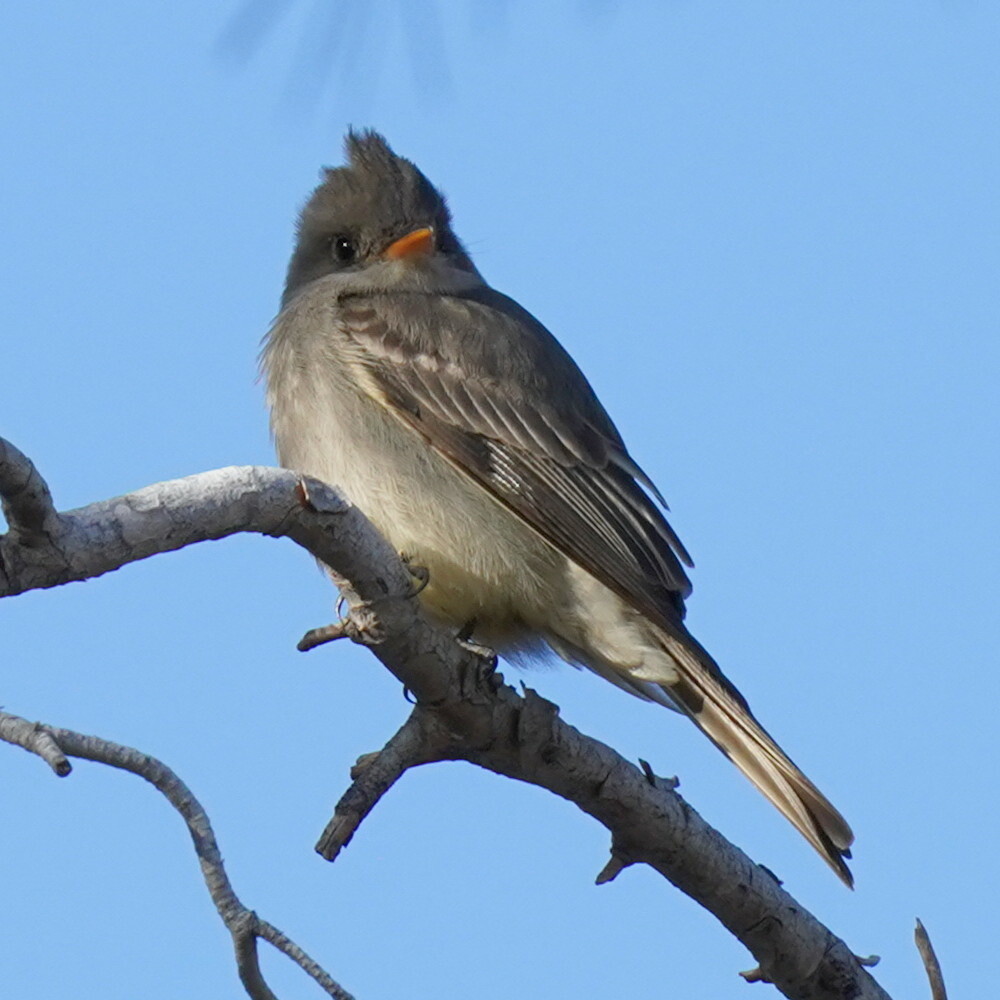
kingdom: Animalia
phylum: Chordata
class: Aves
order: Passeriformes
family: Tyrannidae
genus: Contopus
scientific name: Contopus pertinax
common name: Greater pewee
